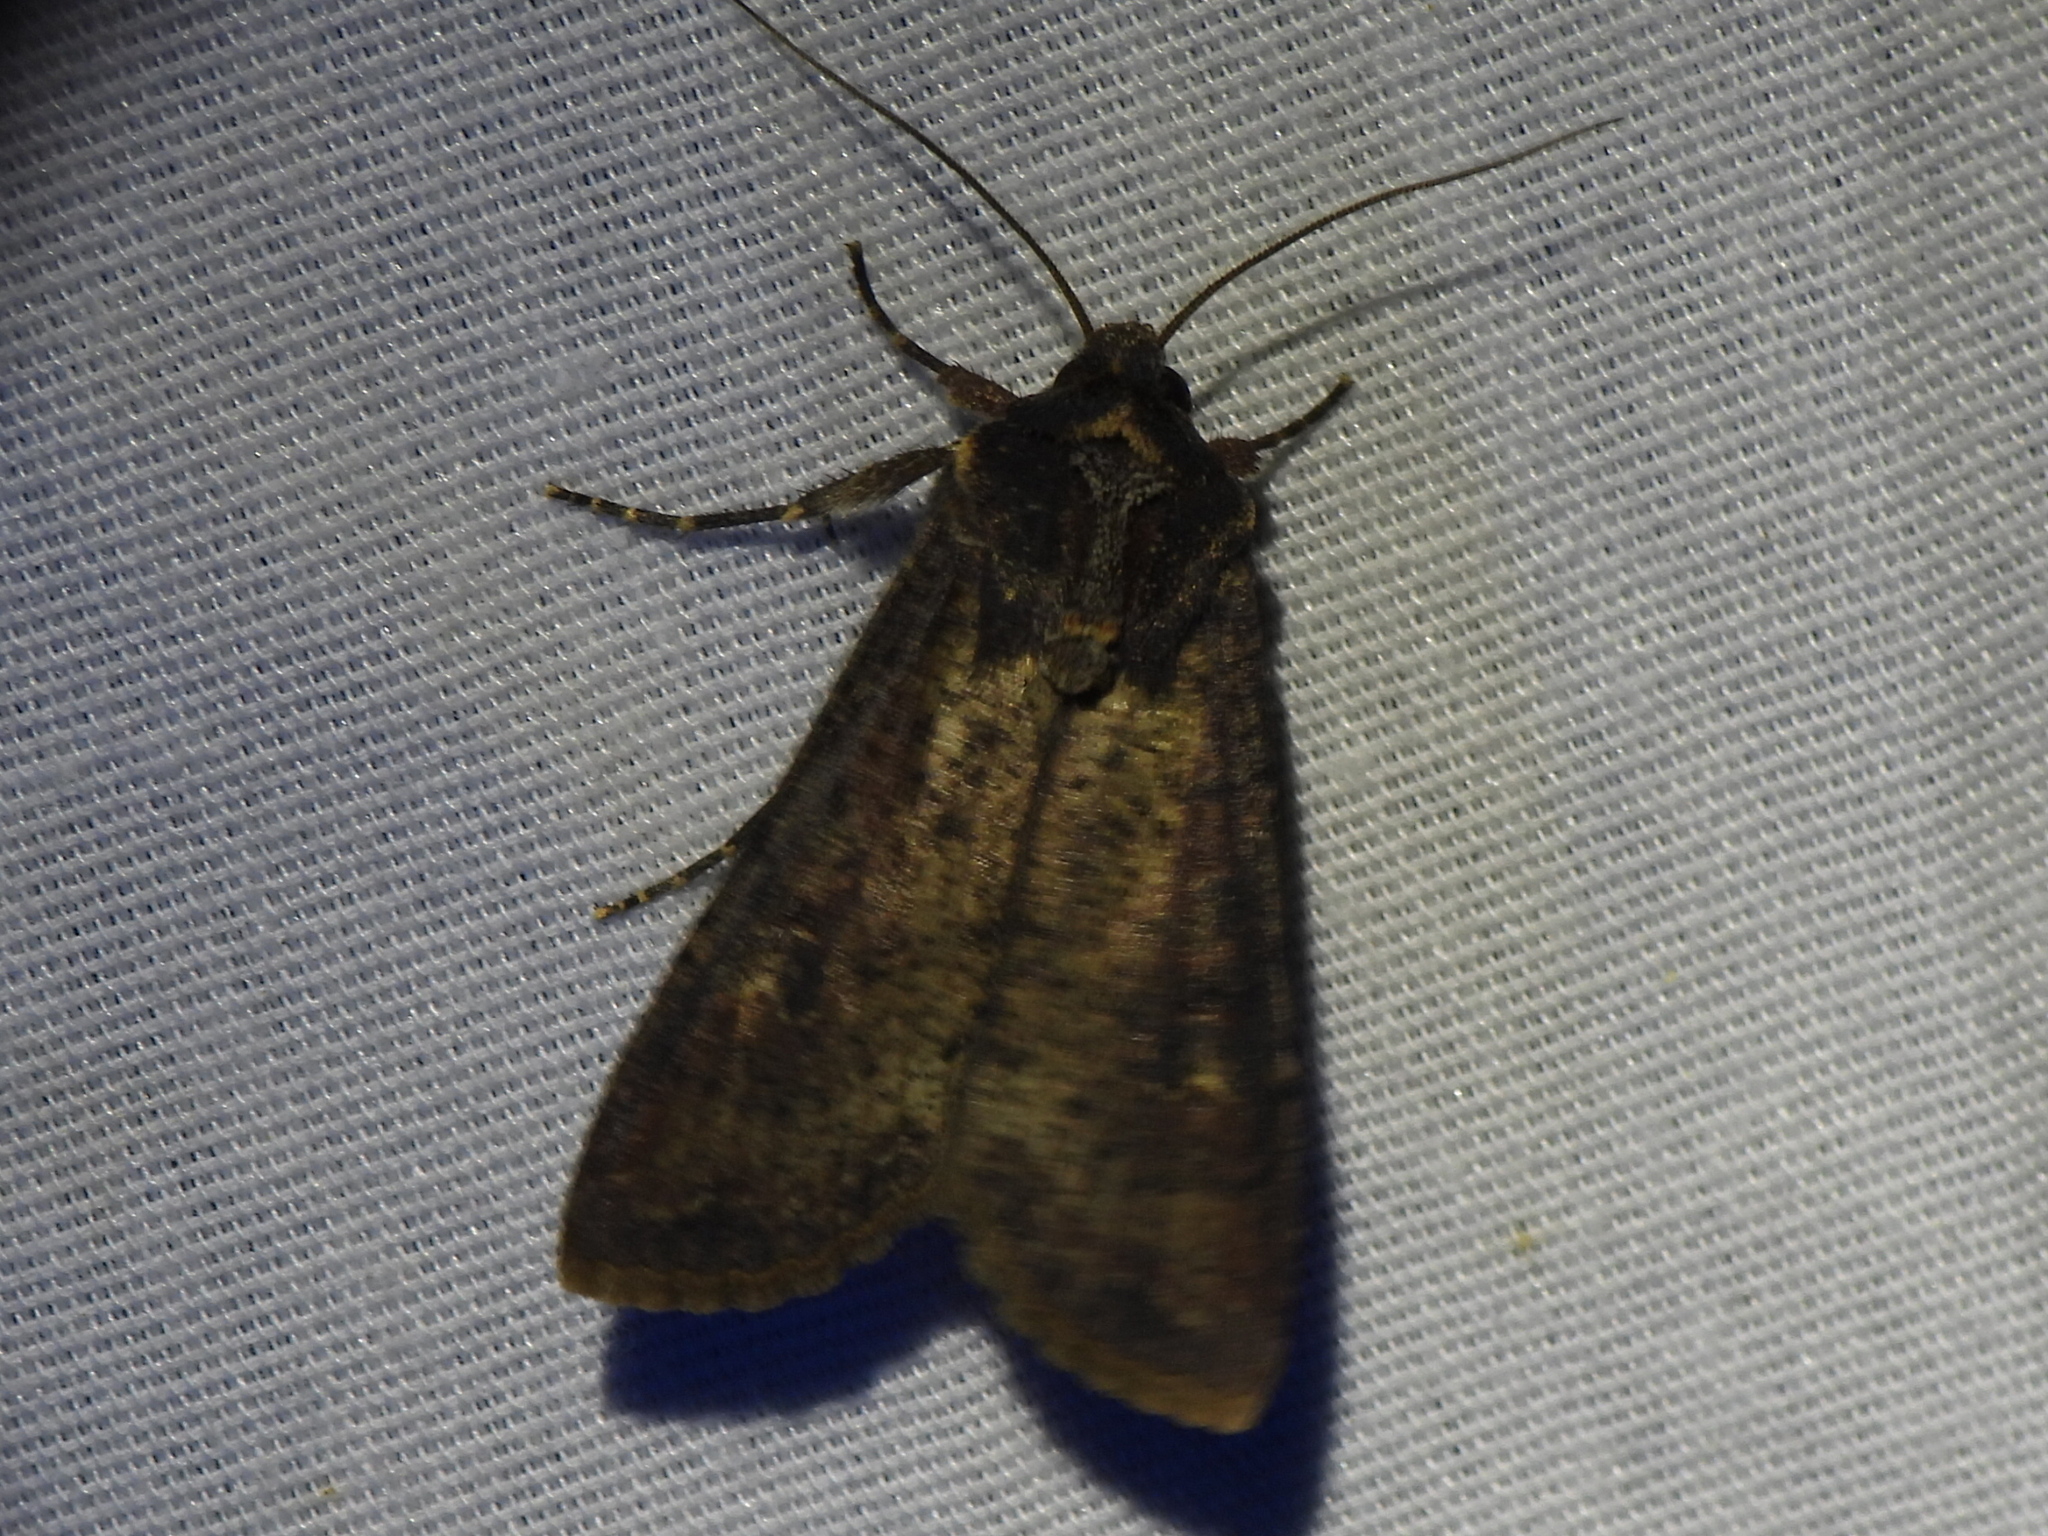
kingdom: Animalia
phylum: Arthropoda
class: Insecta
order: Lepidoptera
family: Noctuidae
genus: Peridroma
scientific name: Peridroma saucia
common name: Pearly underwing
